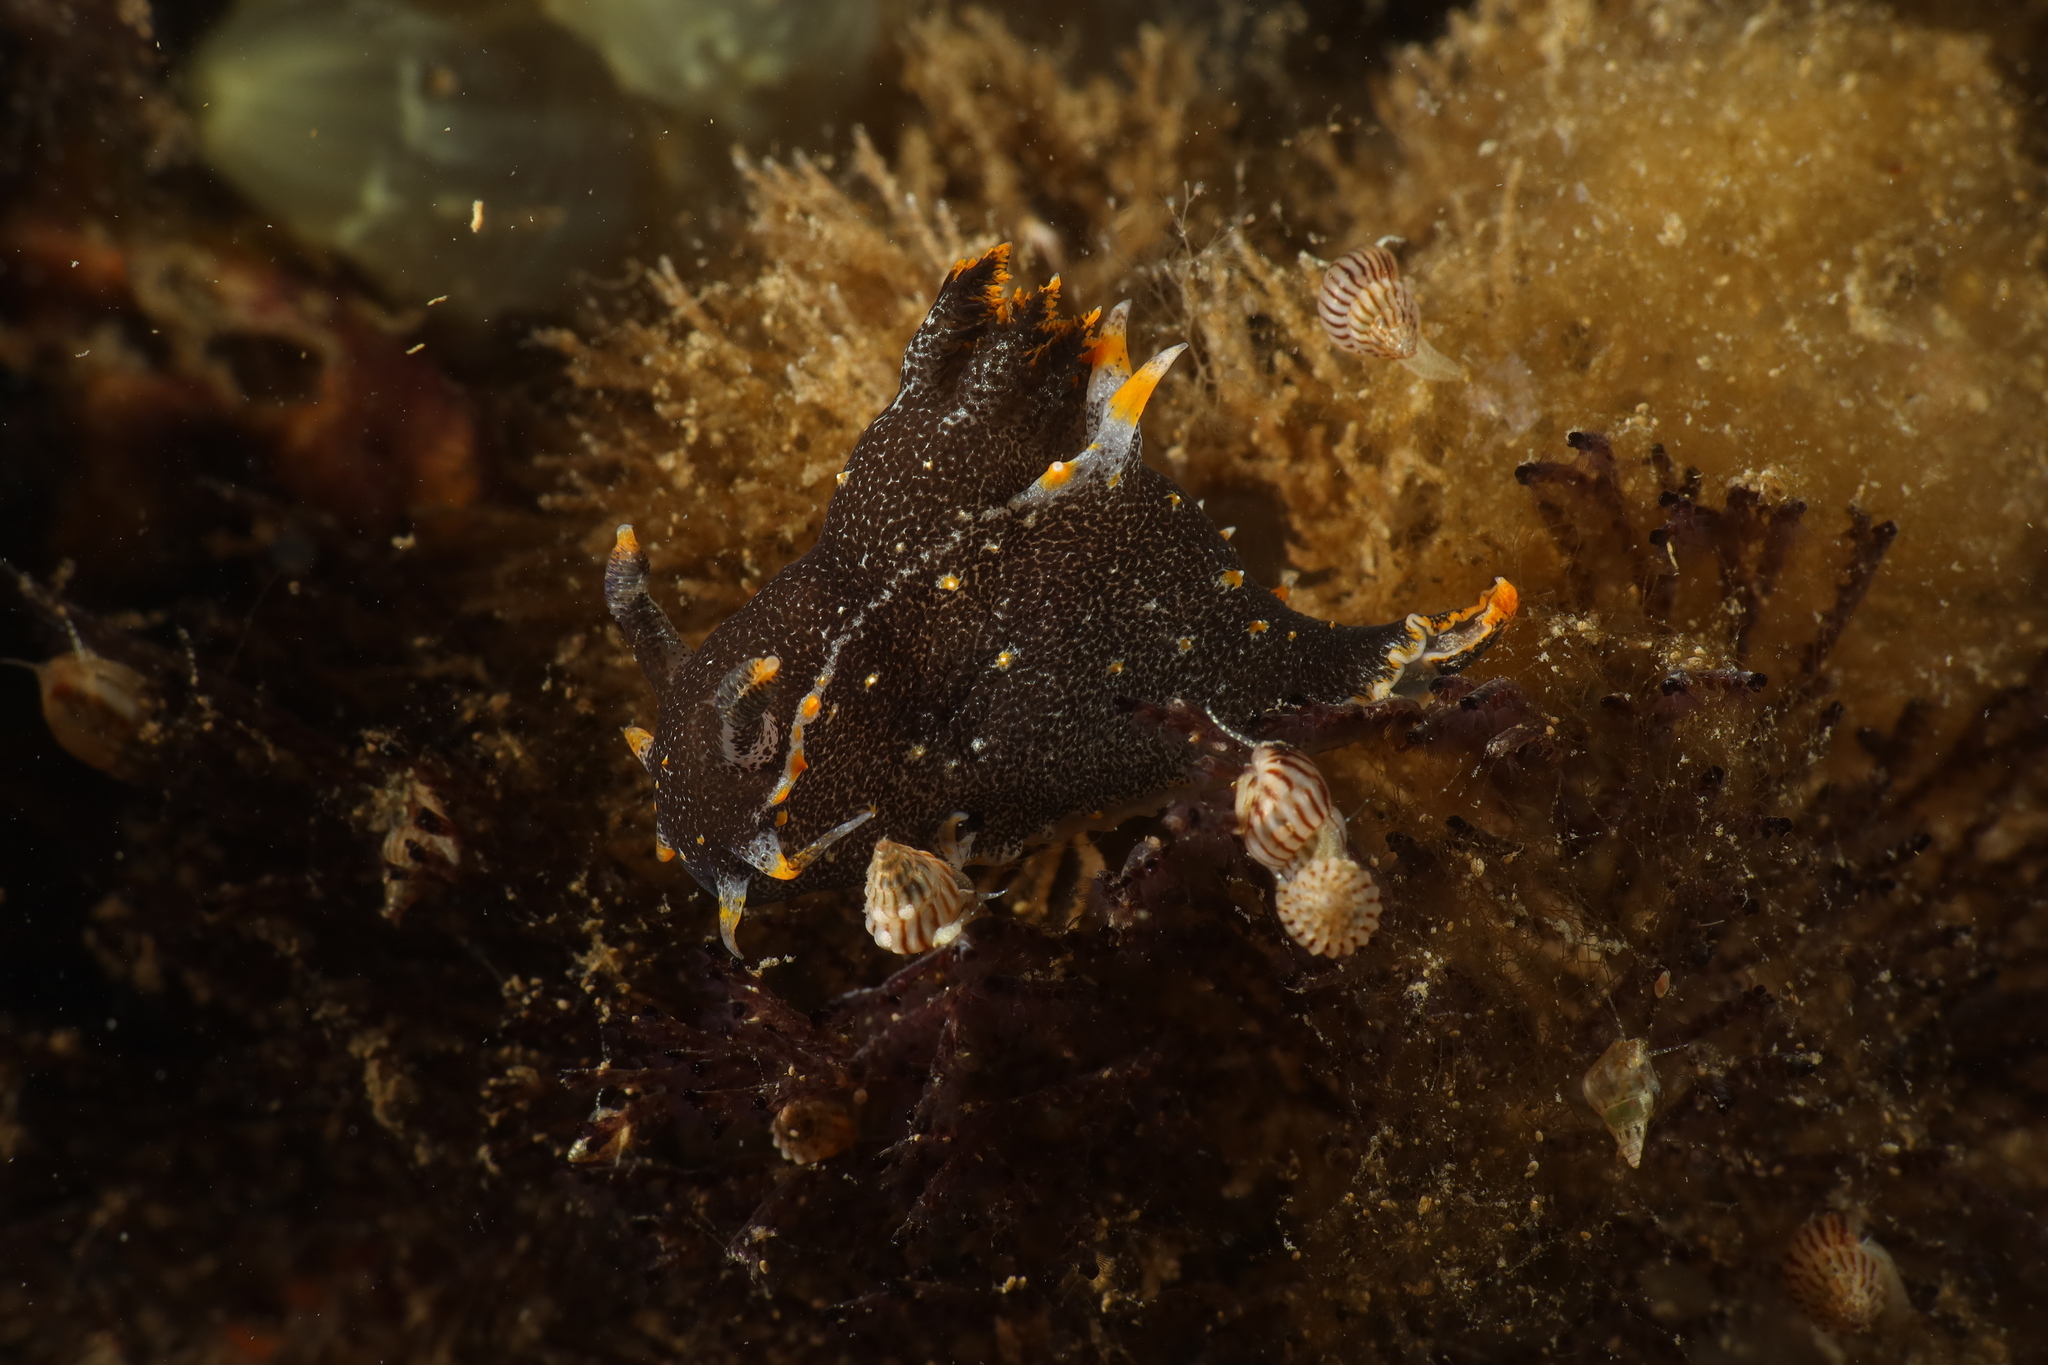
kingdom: Animalia
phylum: Mollusca
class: Gastropoda
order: Nudibranchia
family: Polyceridae
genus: Polycera
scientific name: Polycera hedgpethi
